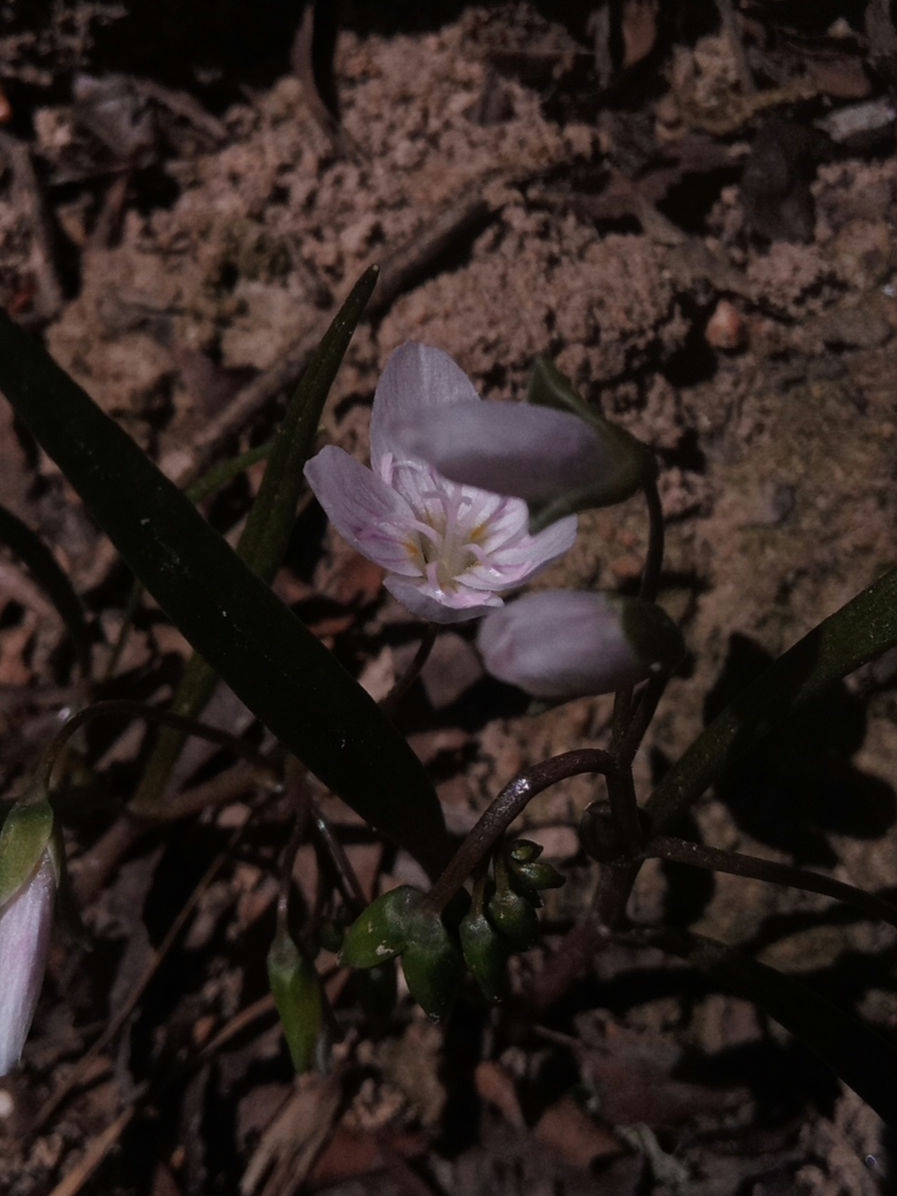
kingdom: Plantae
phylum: Tracheophyta
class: Magnoliopsida
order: Caryophyllales
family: Montiaceae
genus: Claytonia
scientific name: Claytonia virginica
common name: Virginia springbeauty
